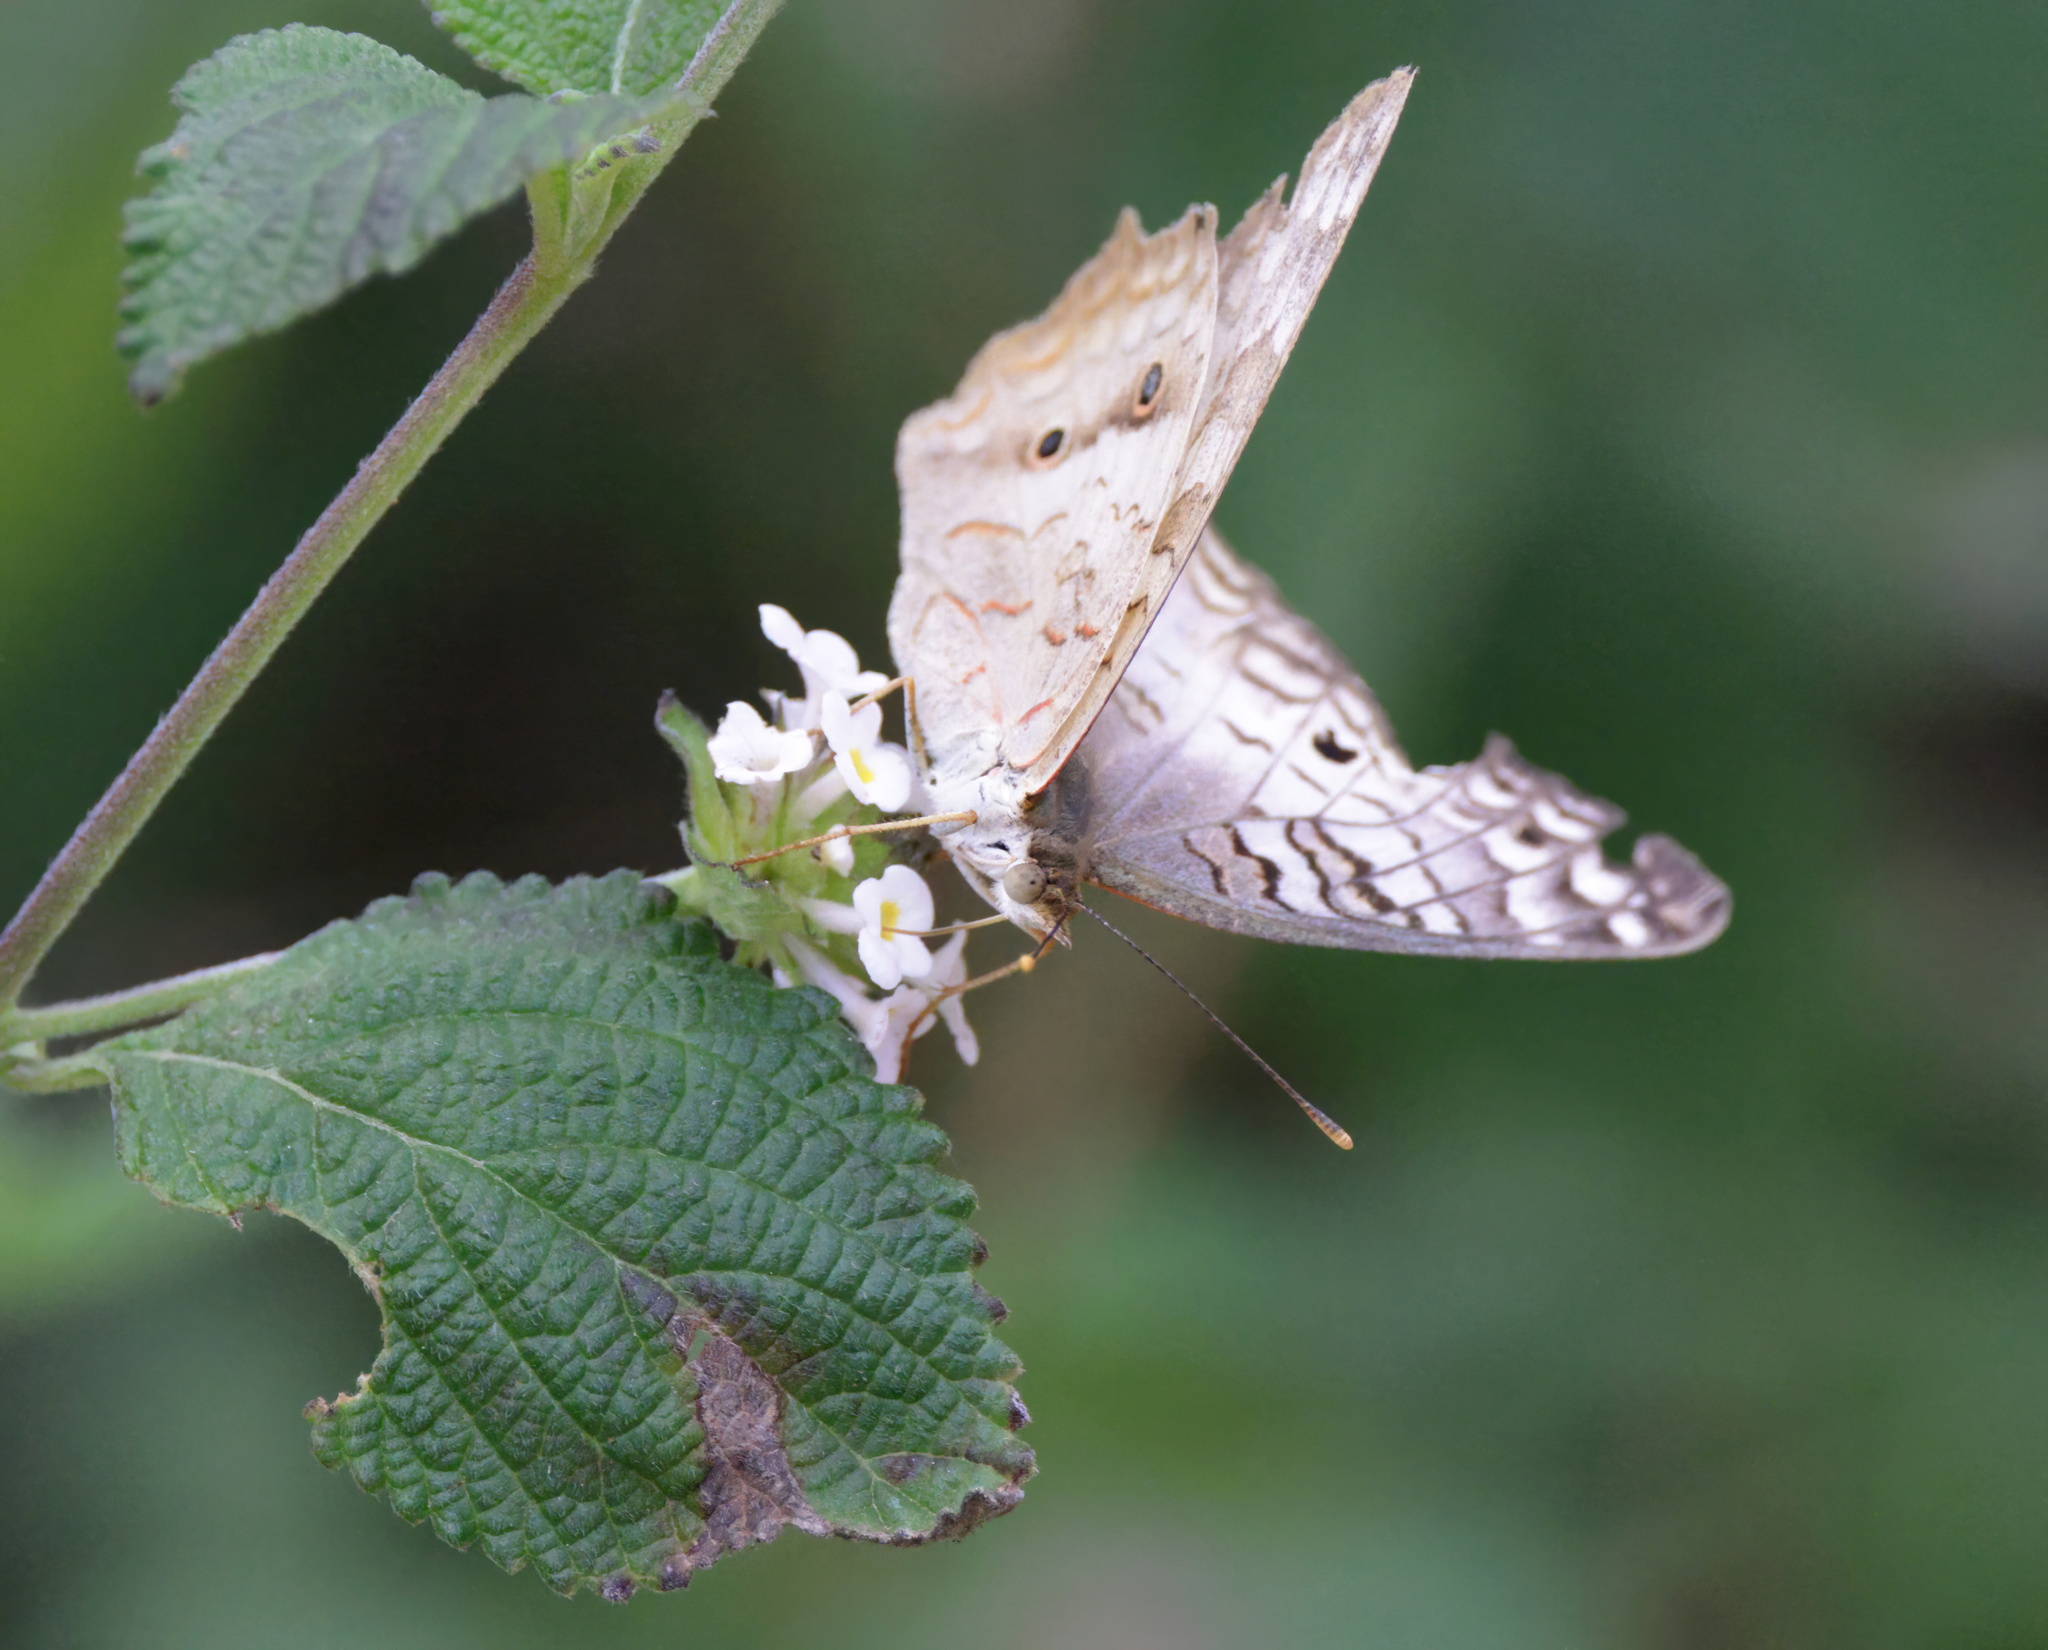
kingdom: Animalia
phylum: Arthropoda
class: Insecta
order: Lepidoptera
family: Nymphalidae
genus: Anartia
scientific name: Anartia jatrophae
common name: White peacock
